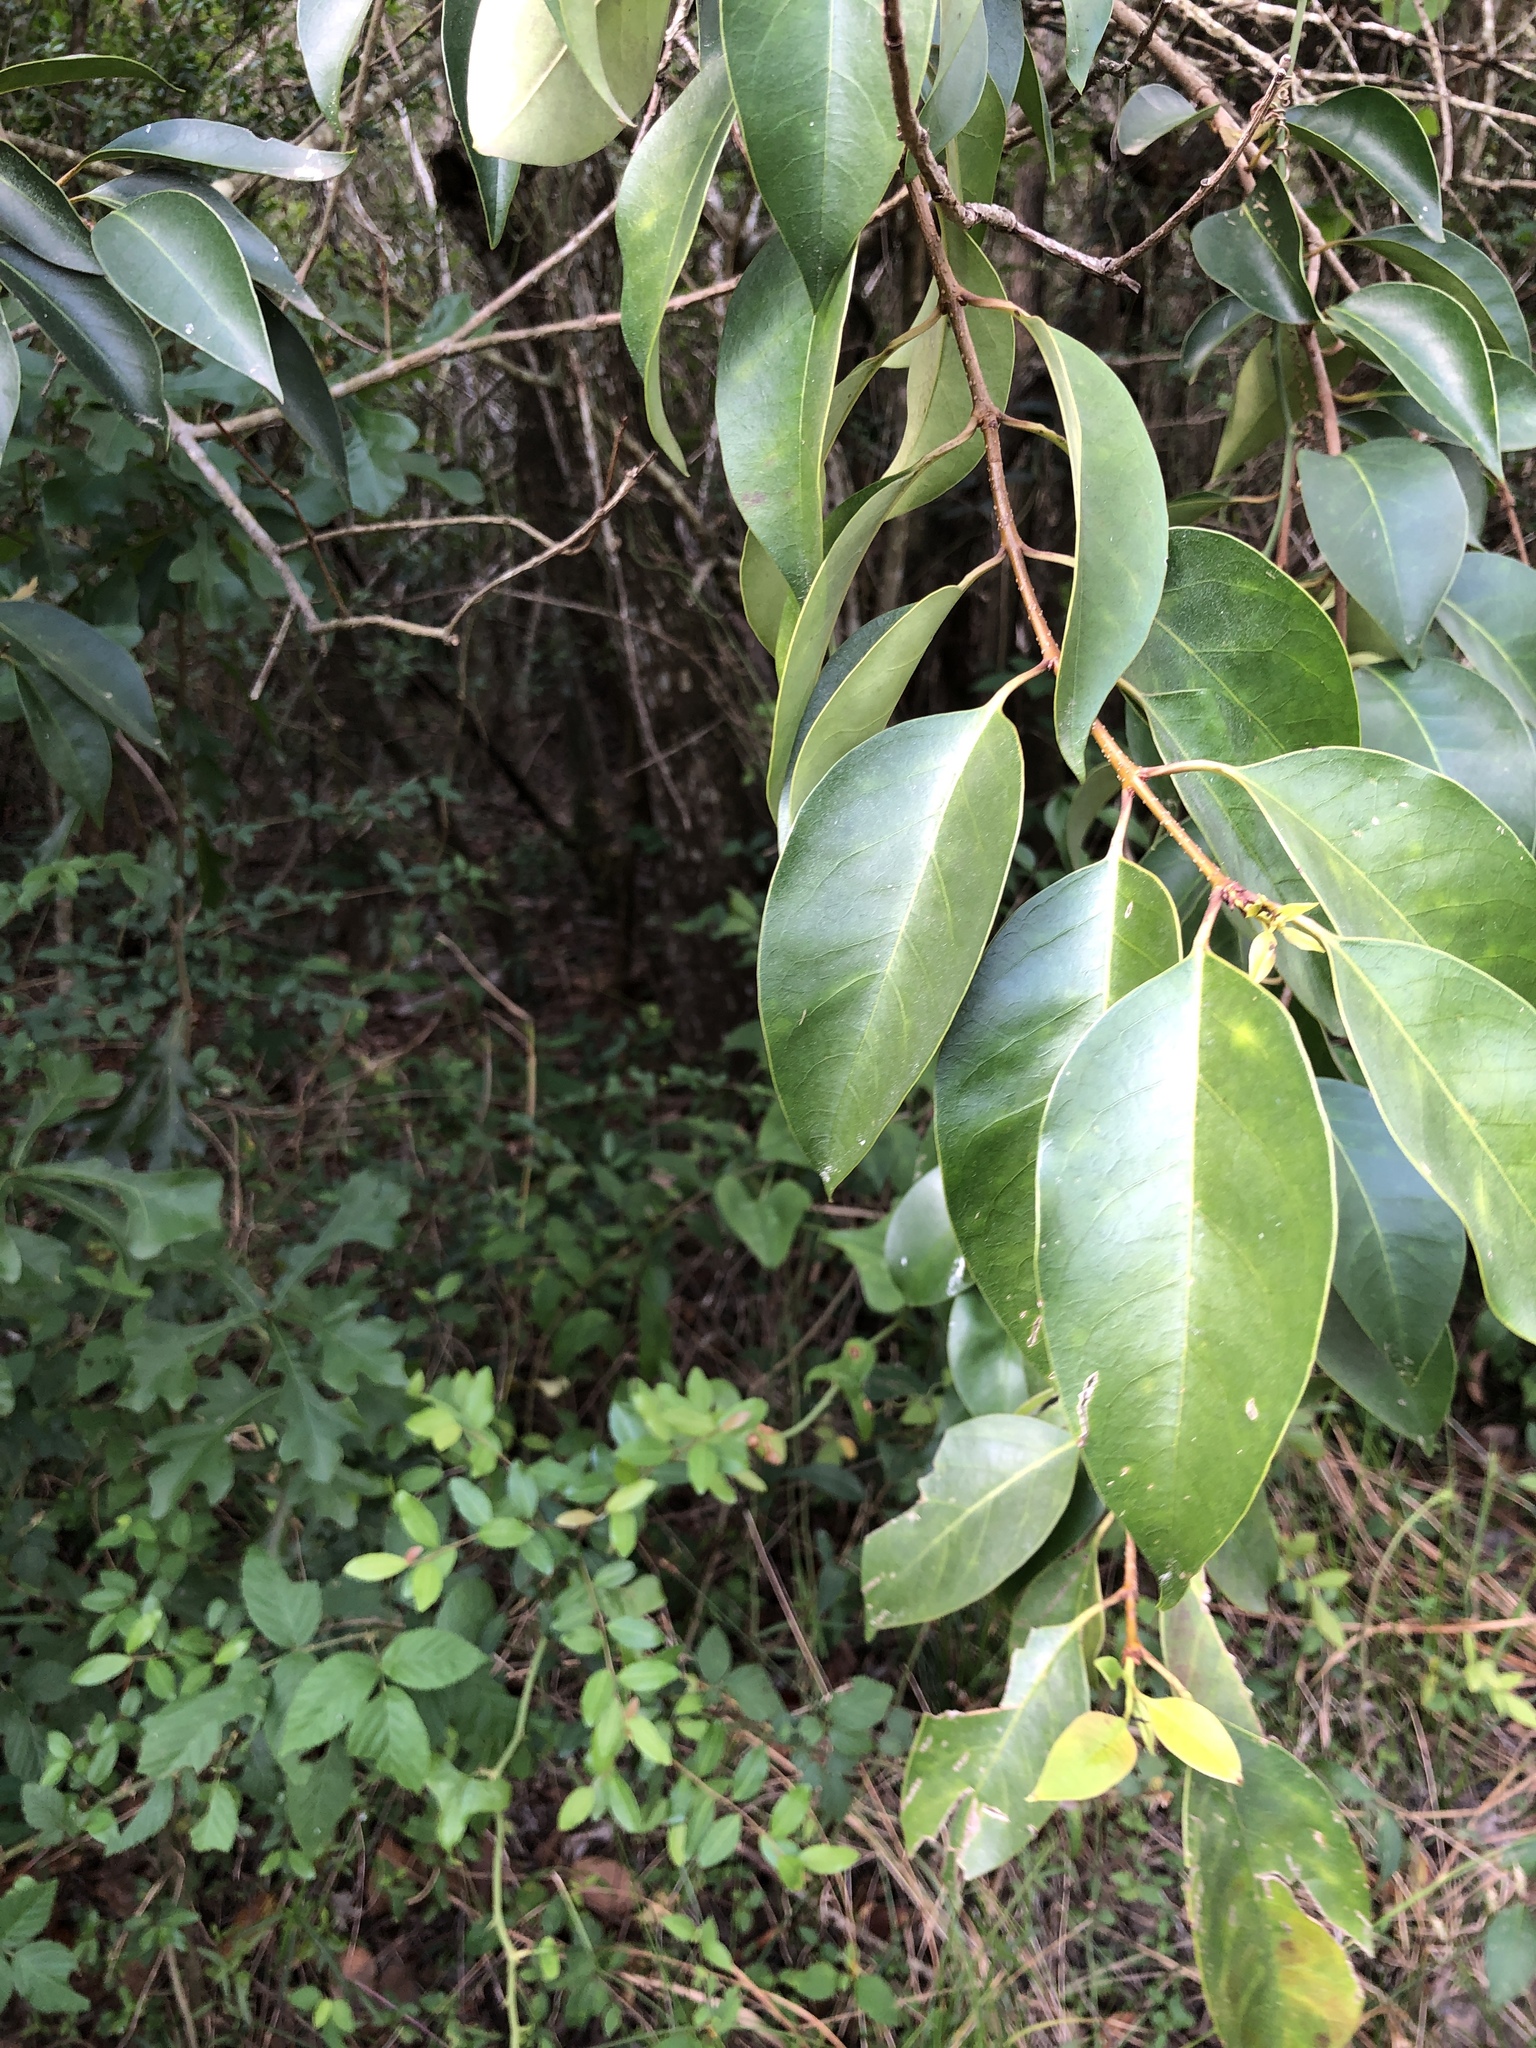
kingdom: Plantae
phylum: Tracheophyta
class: Magnoliopsida
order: Lamiales
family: Oleaceae
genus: Ligustrum
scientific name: Ligustrum lucidum
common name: Glossy privet
